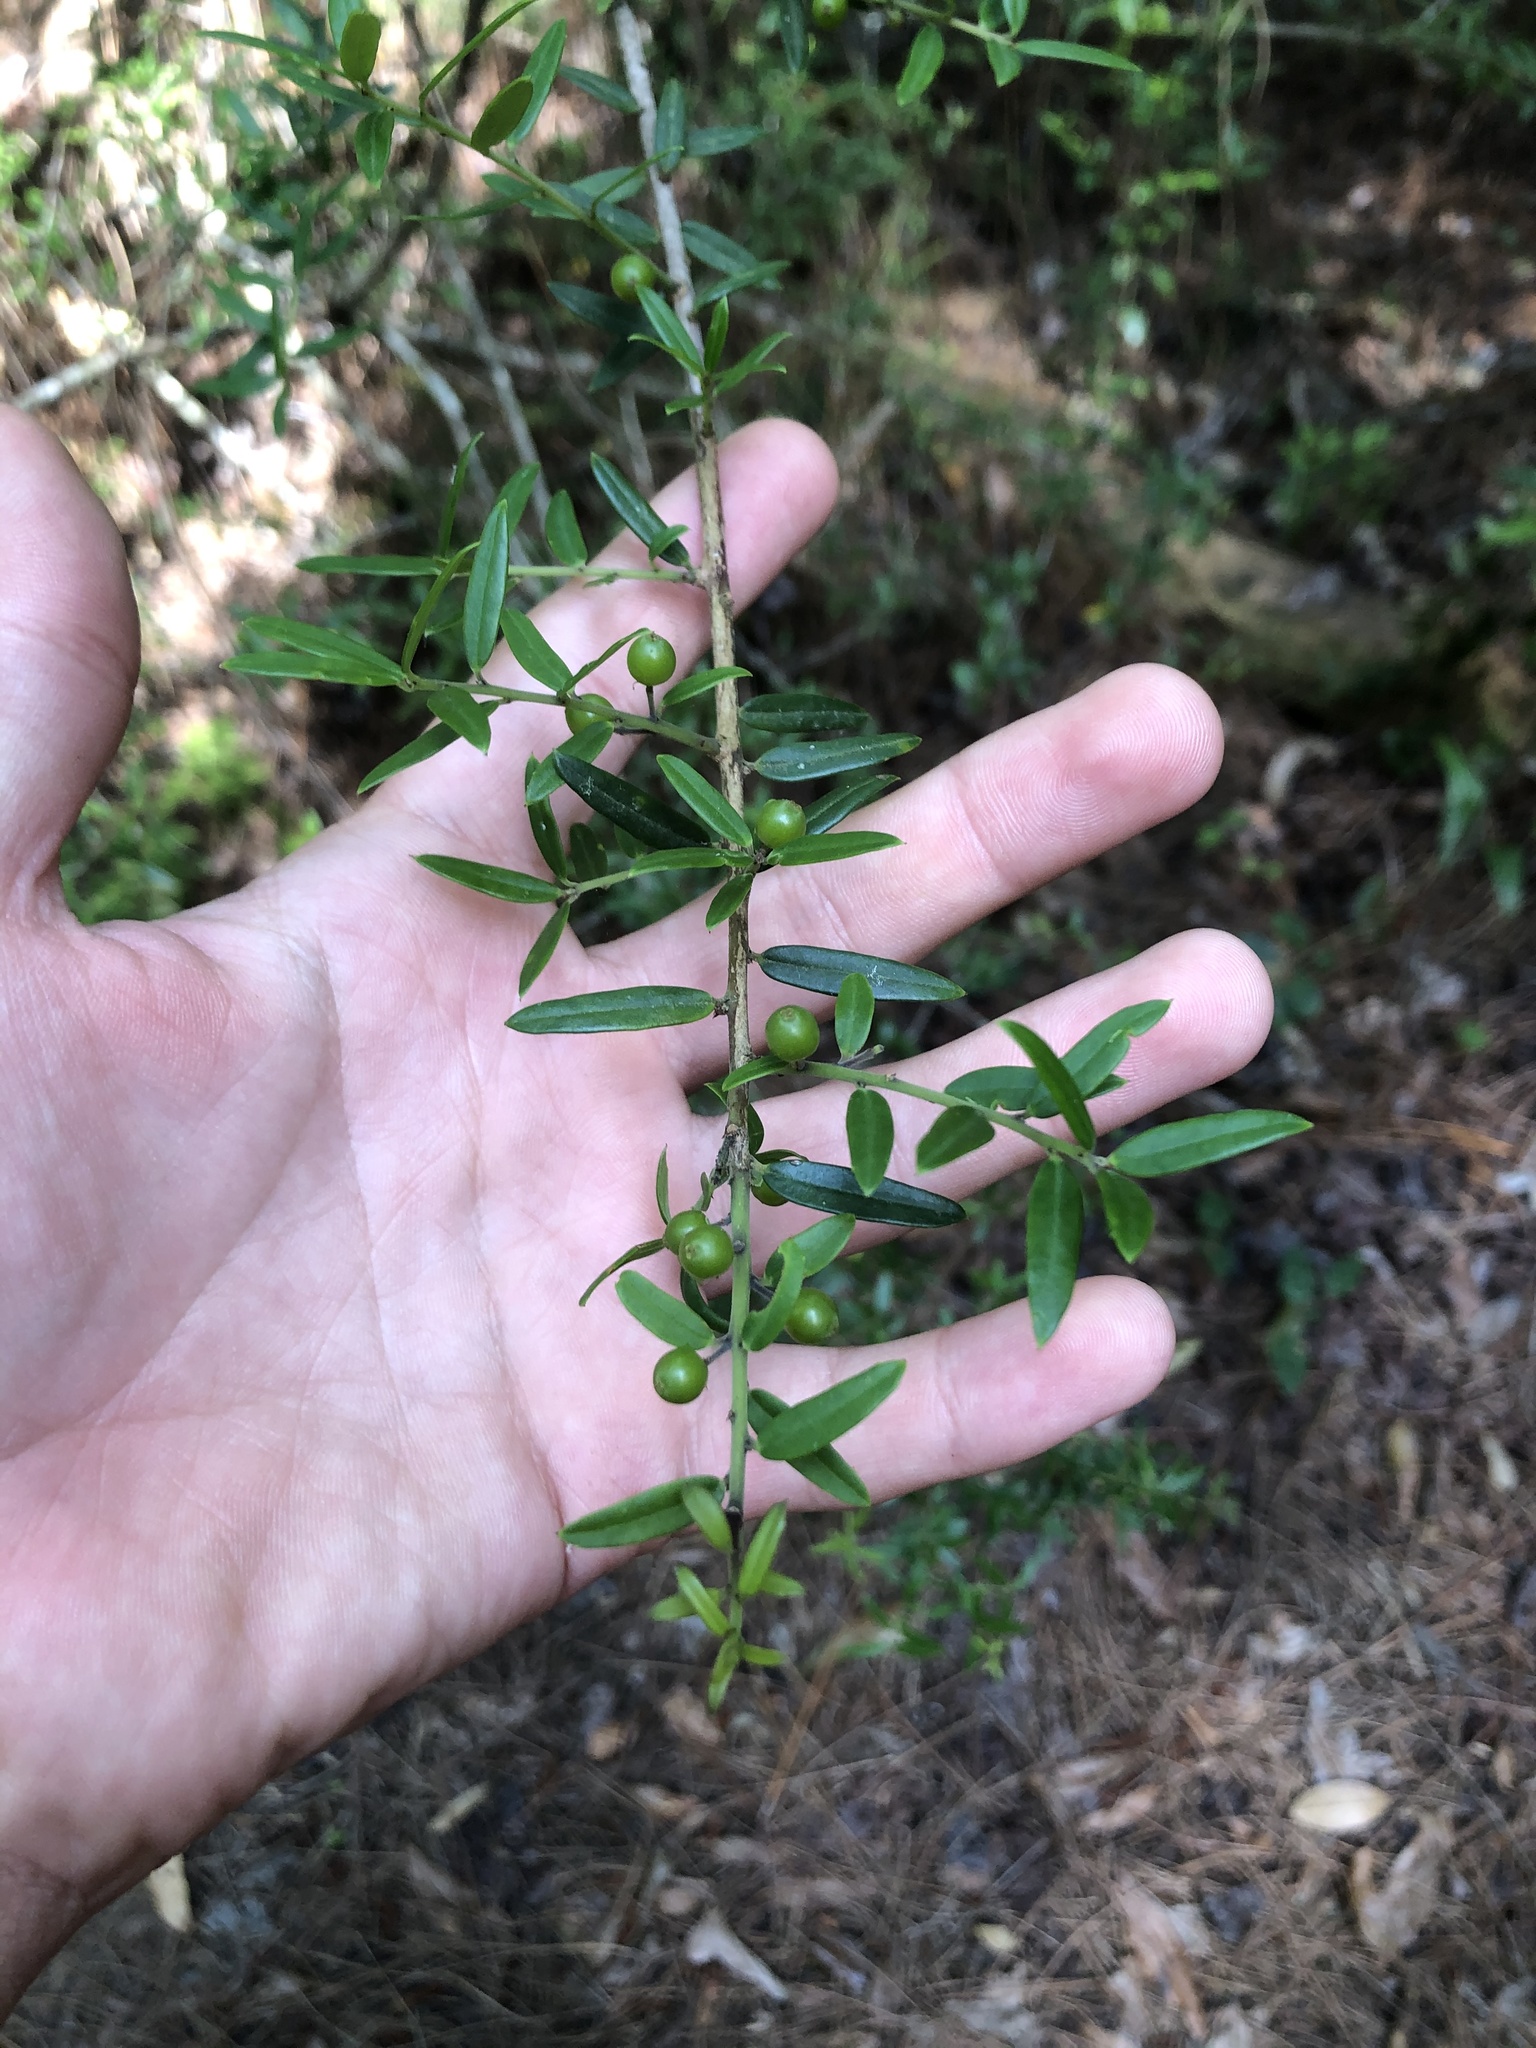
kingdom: Plantae
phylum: Tracheophyta
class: Magnoliopsida
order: Aquifoliales
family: Aquifoliaceae
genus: Ilex
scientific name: Ilex vomitoria
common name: Yaupon holly
